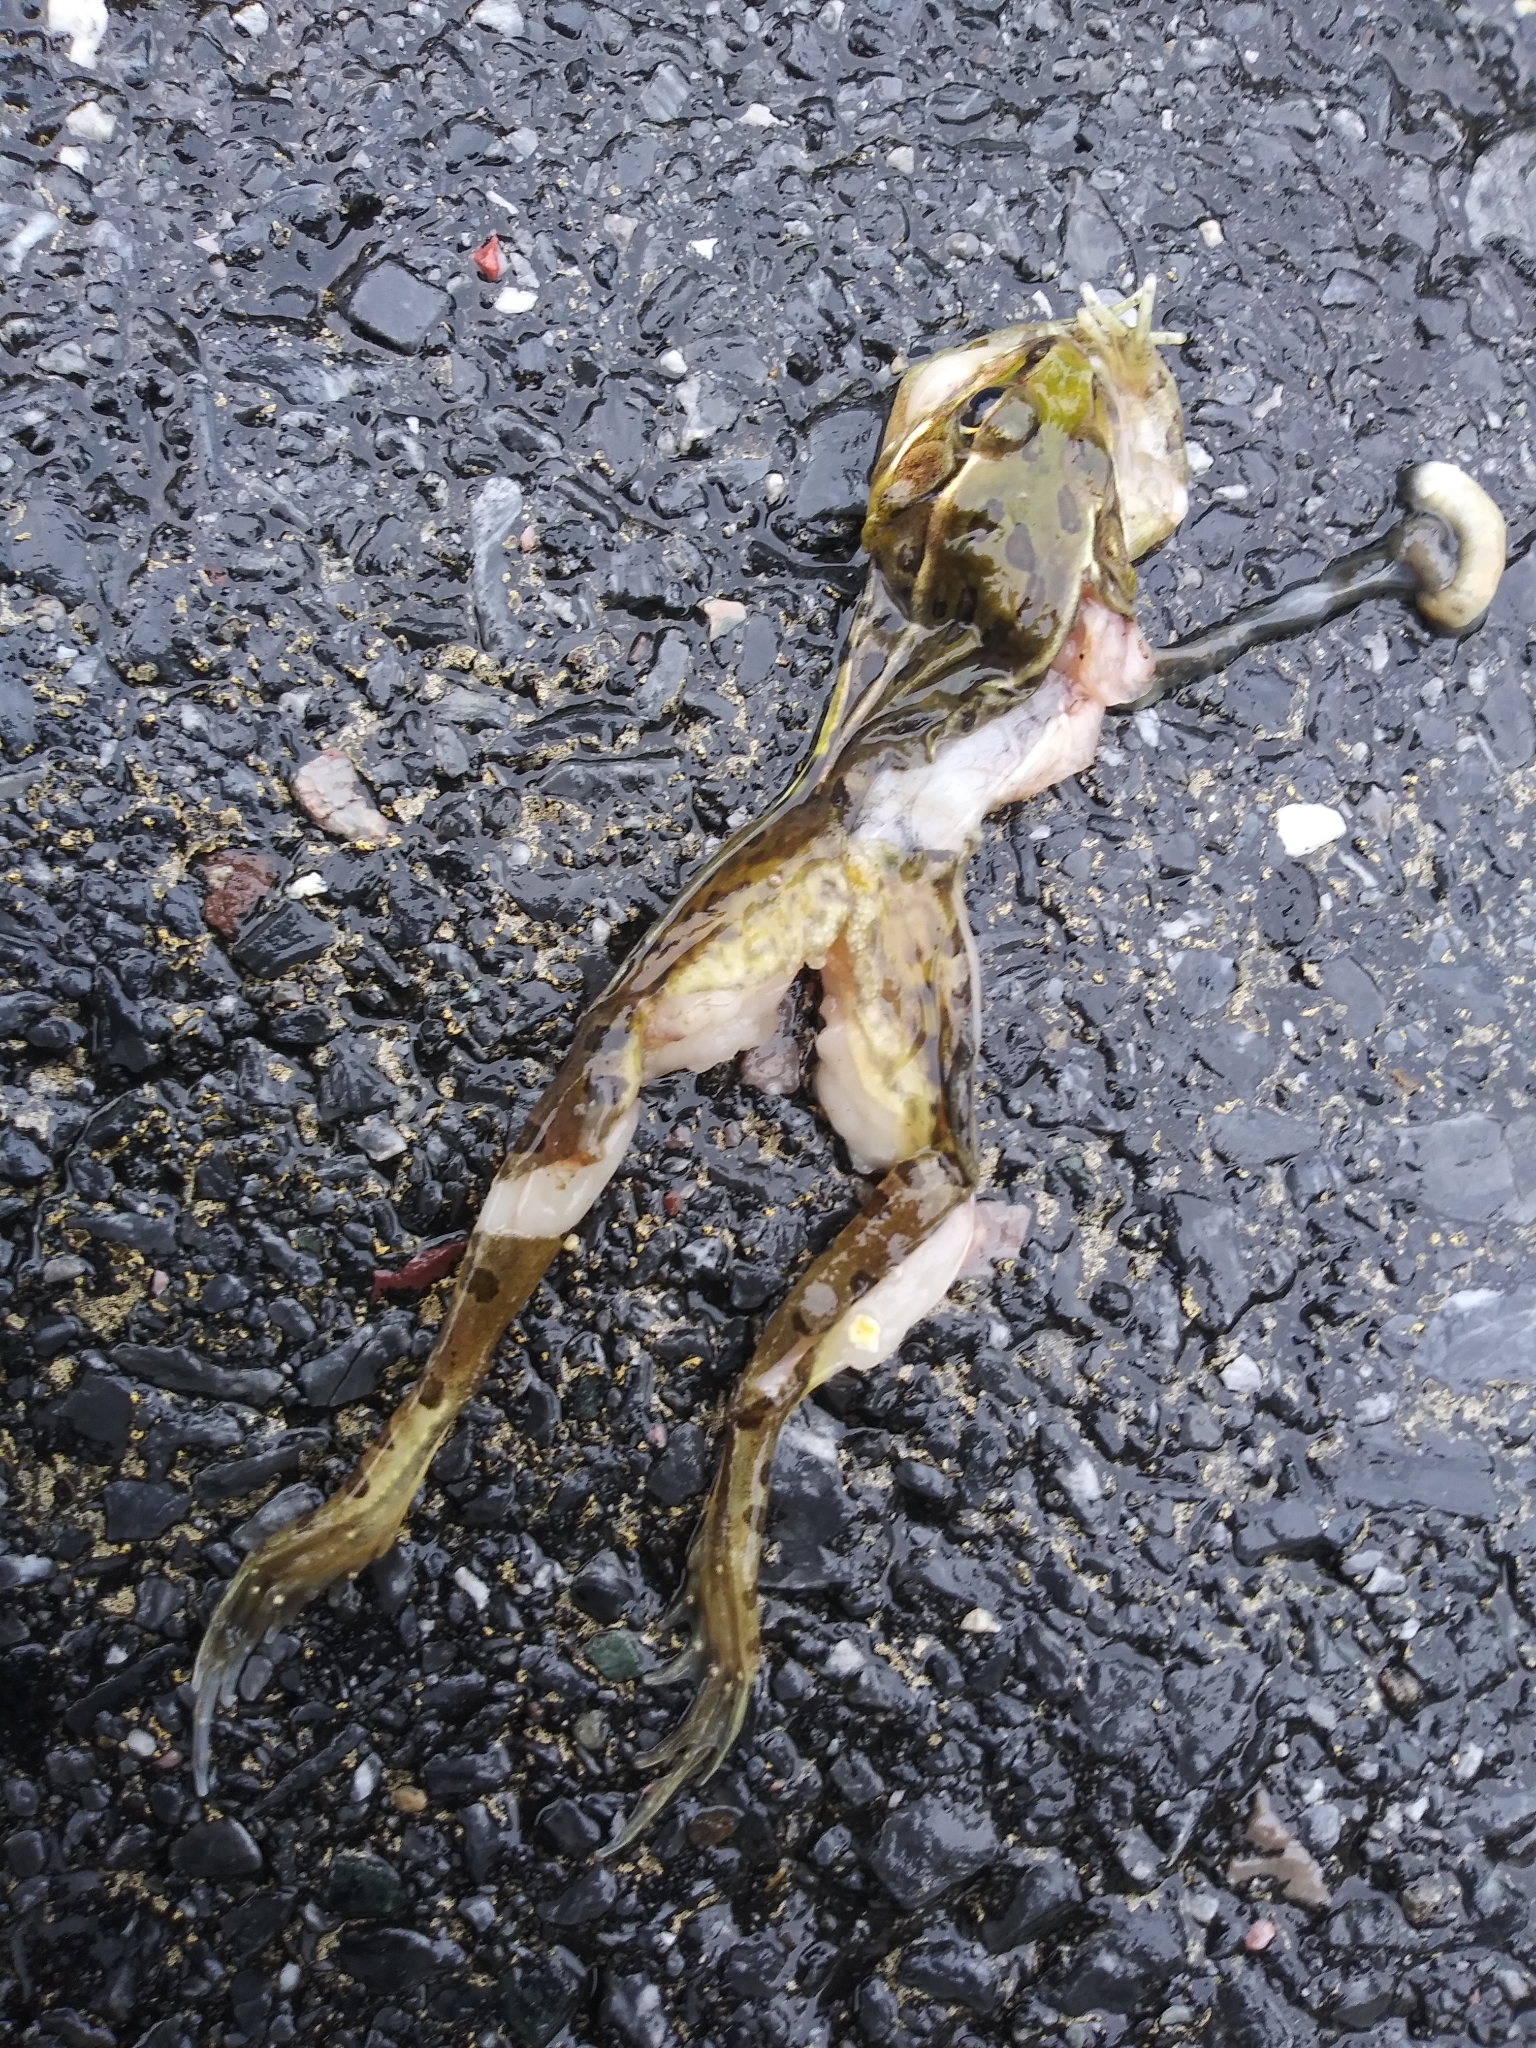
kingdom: Animalia
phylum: Chordata
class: Amphibia
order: Anura
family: Ranidae
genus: Lithobates
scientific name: Lithobates sphenocephalus
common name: Southern leopard frog
